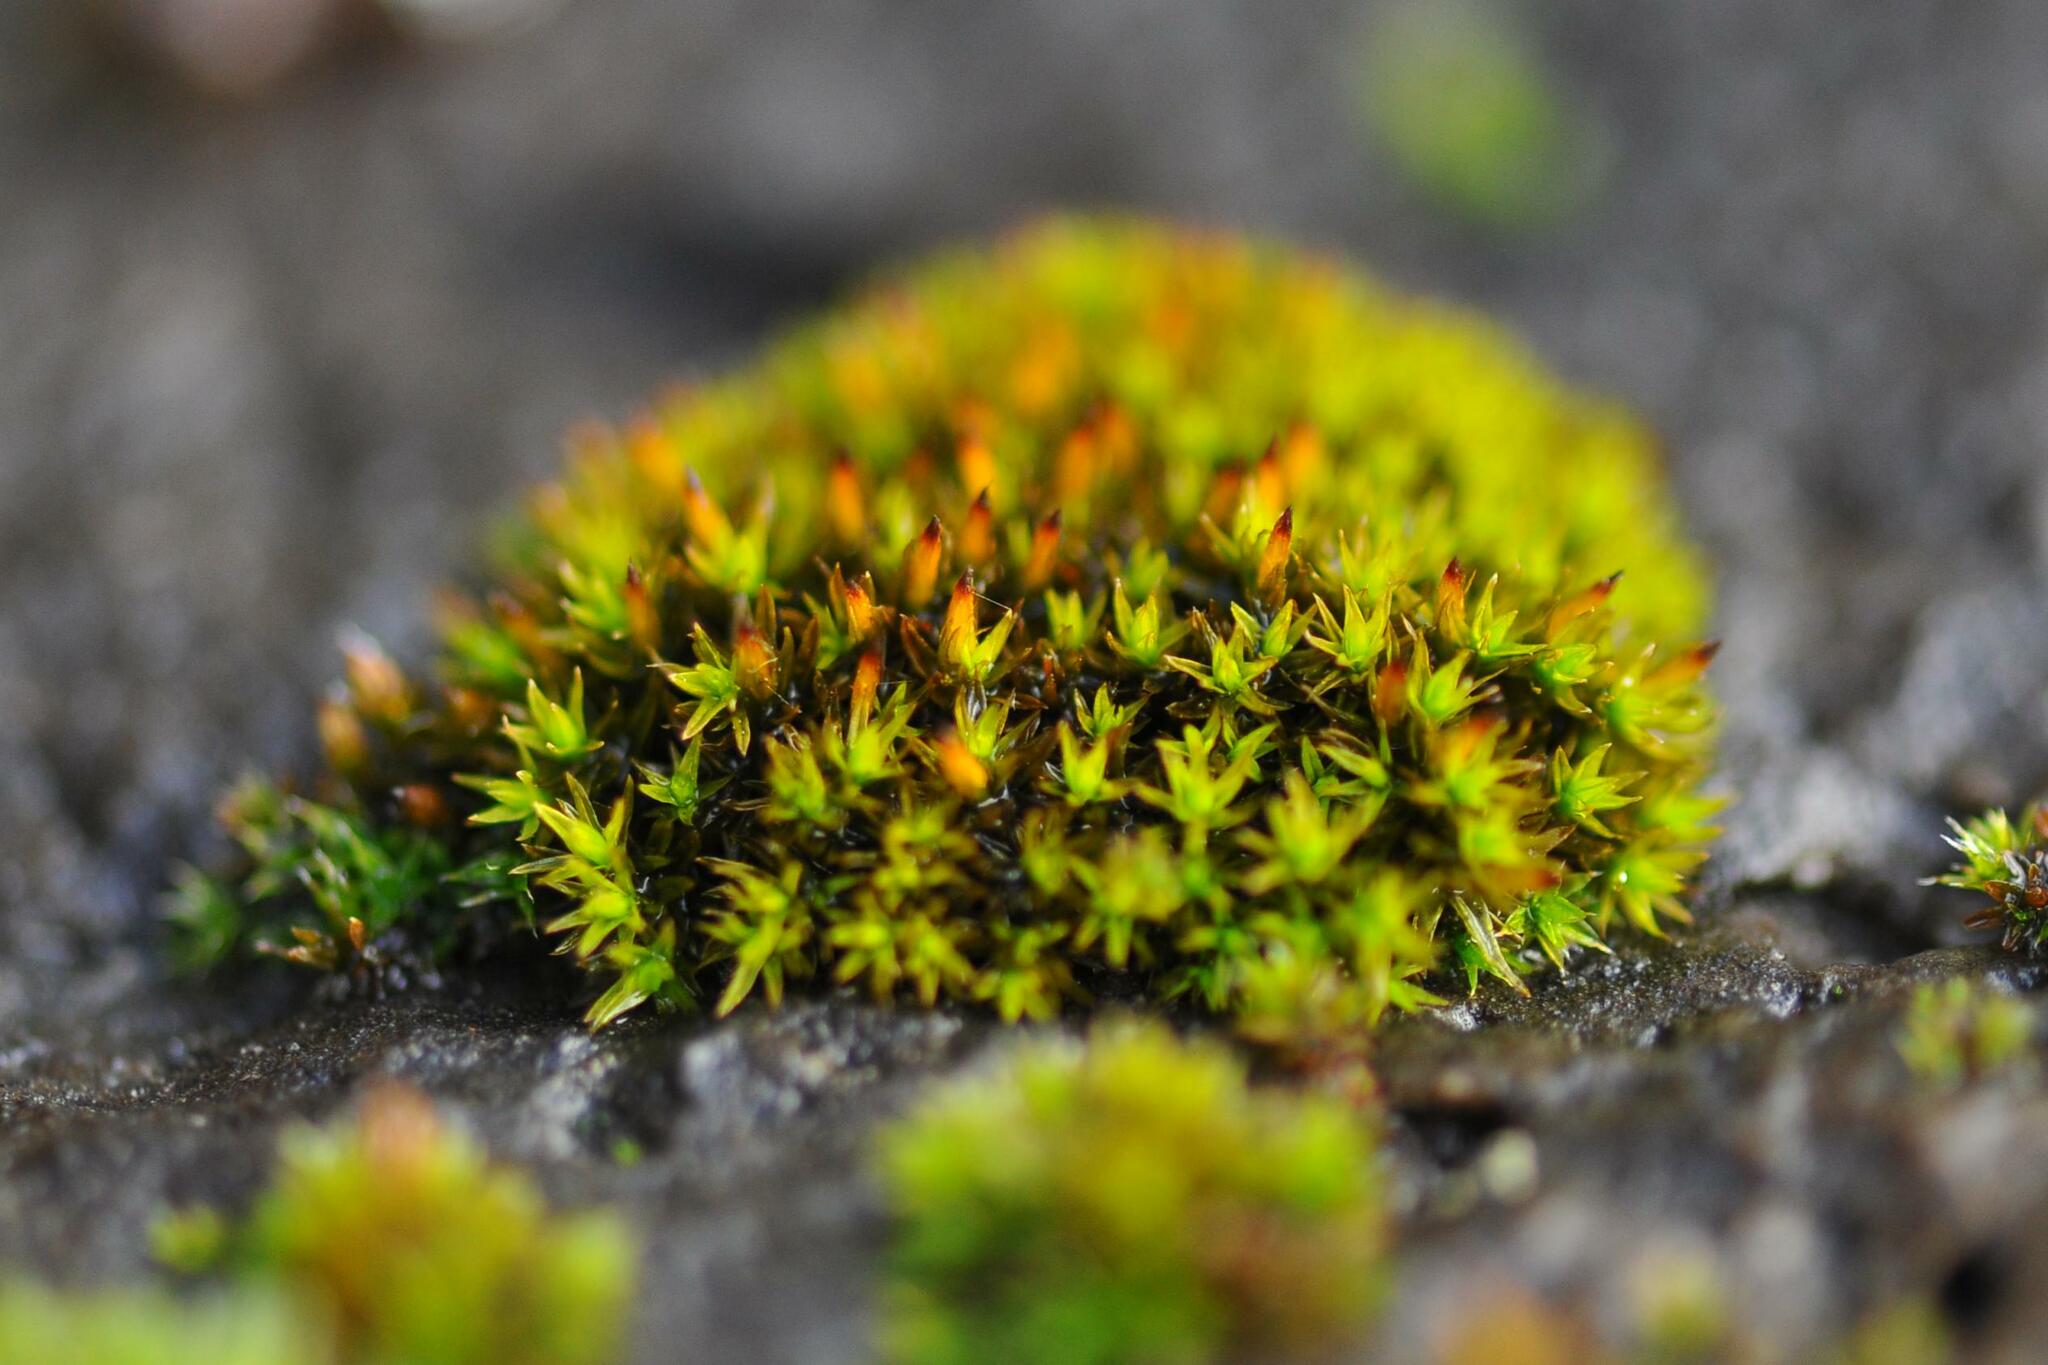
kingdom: Plantae
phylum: Bryophyta
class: Bryopsida
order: Orthotrichales
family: Orthotrichaceae
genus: Orthotrichum
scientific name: Orthotrichum anomalum
